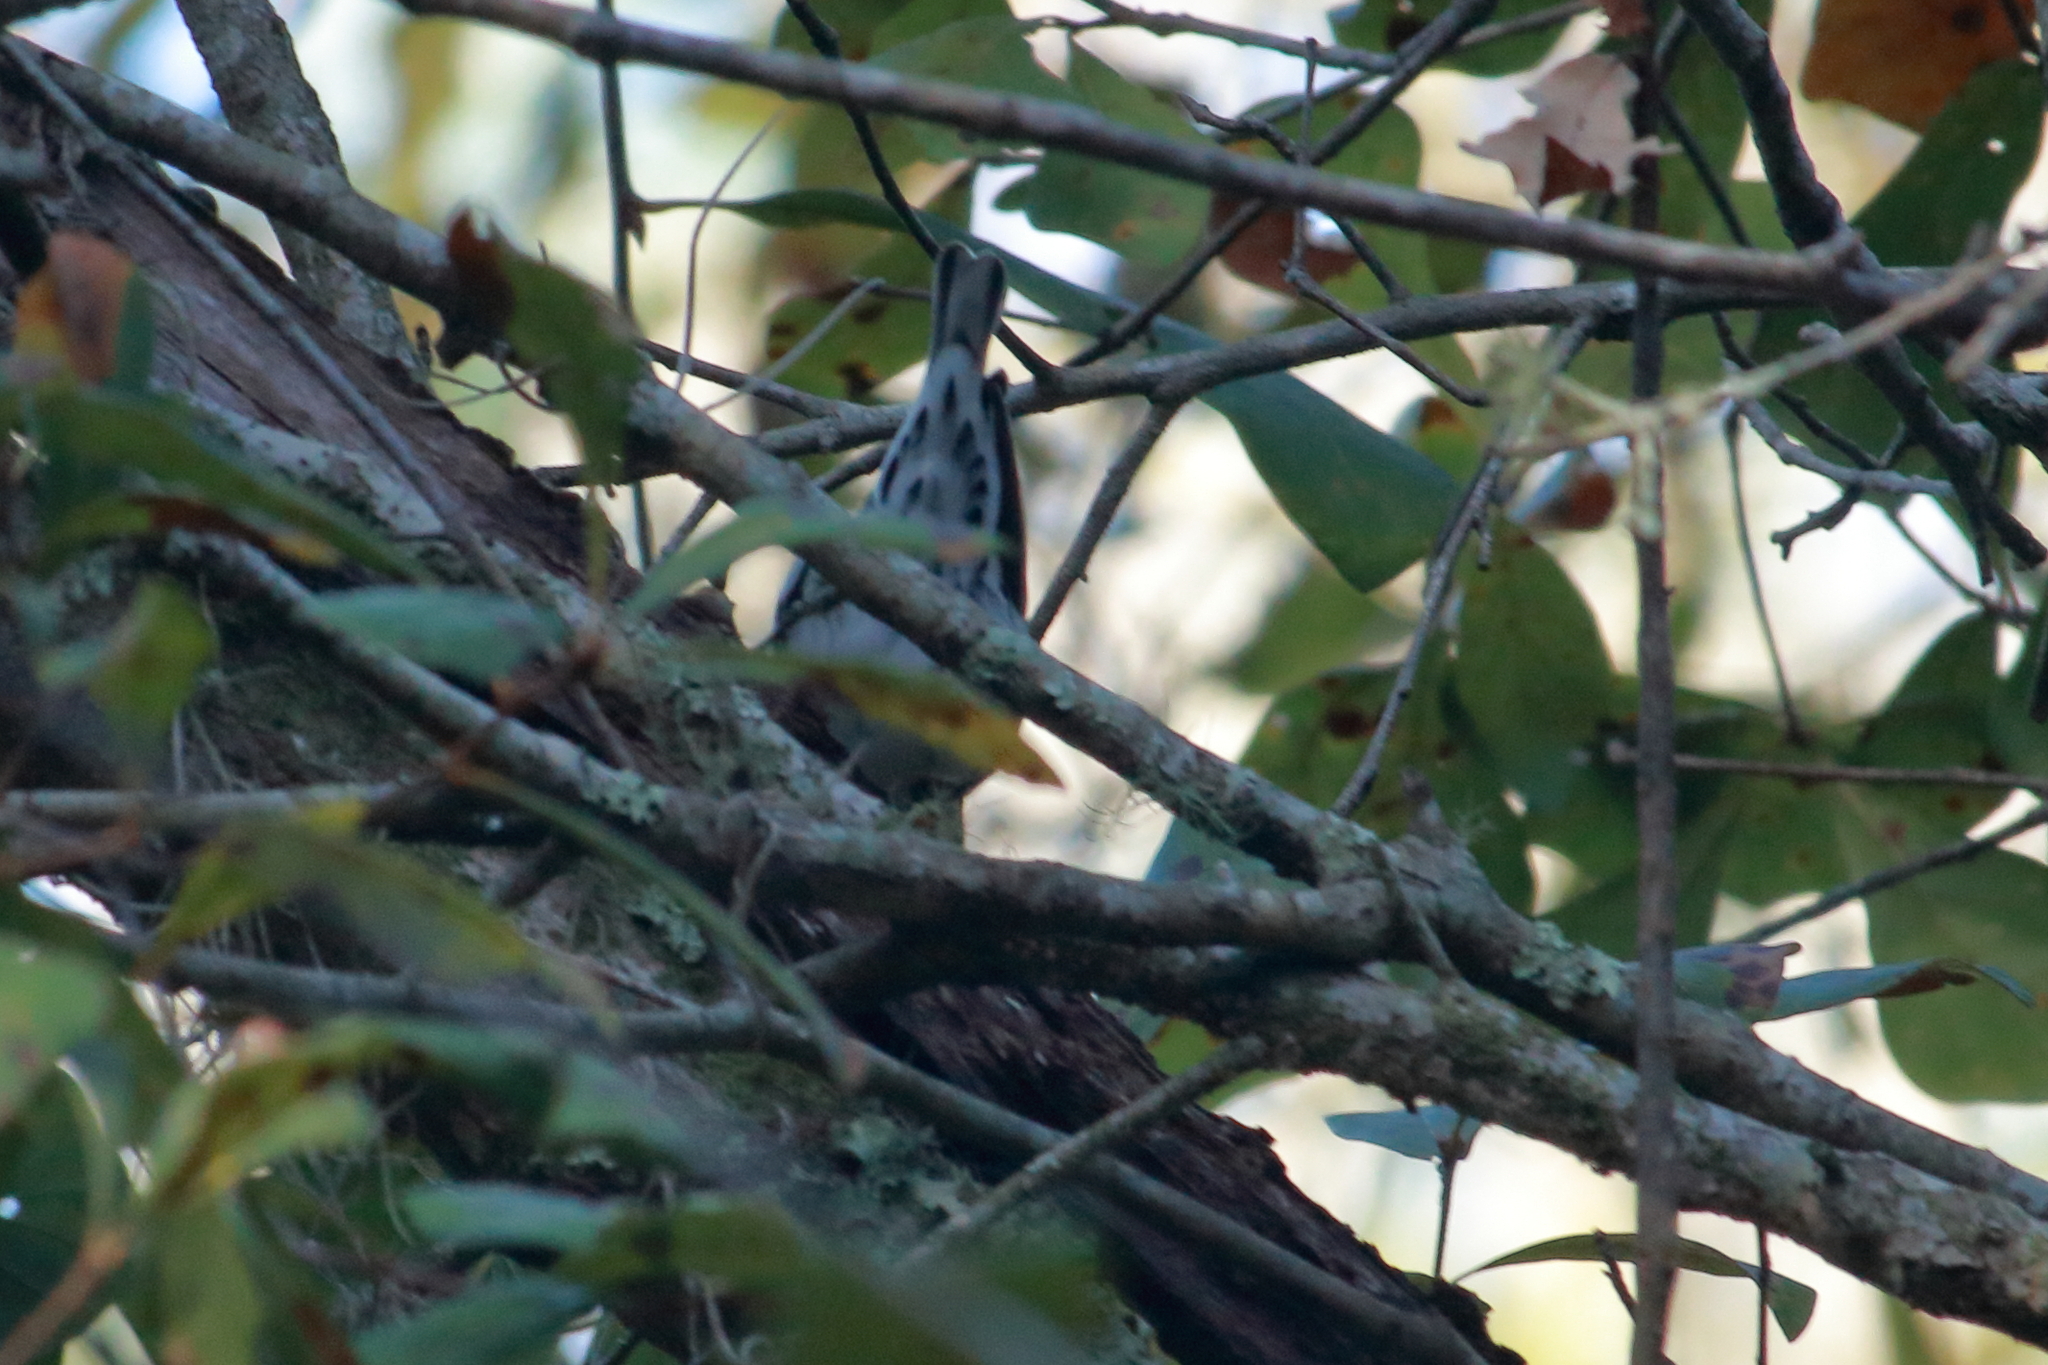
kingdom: Animalia
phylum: Chordata
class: Aves
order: Passeriformes
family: Parulidae
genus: Mniotilta
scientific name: Mniotilta varia
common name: Black-and-white warbler
